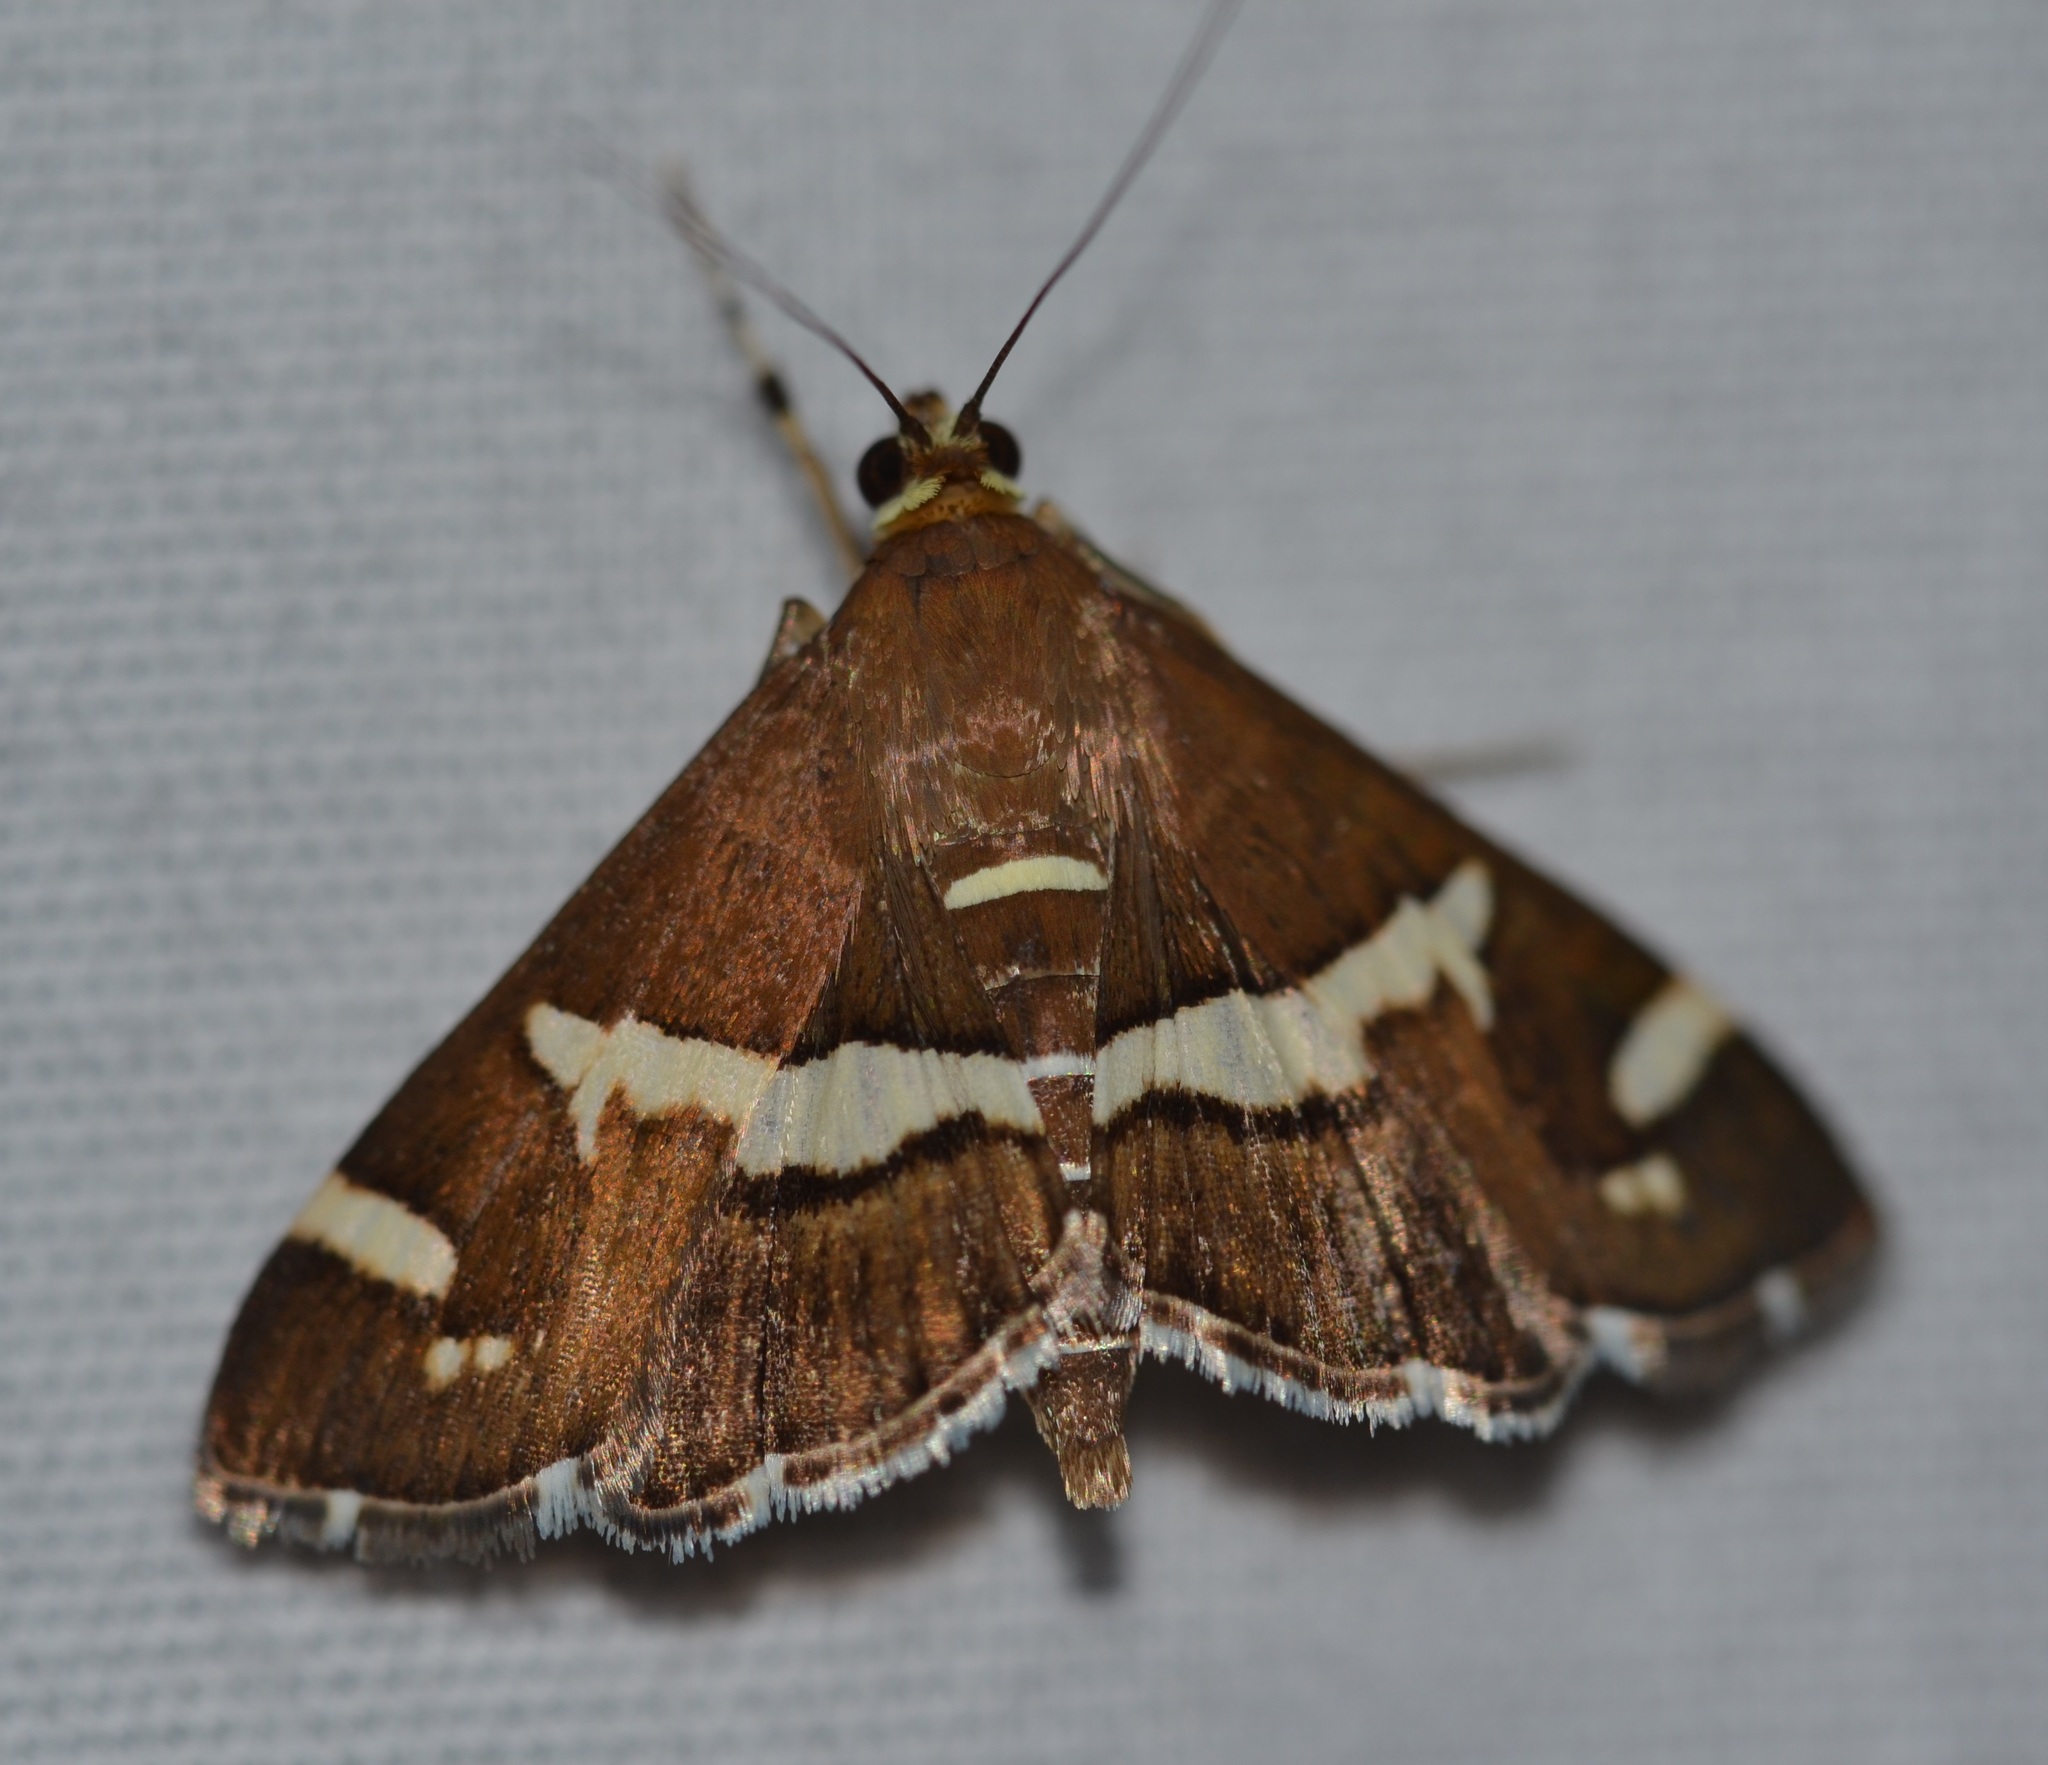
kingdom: Animalia
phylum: Arthropoda
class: Insecta
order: Lepidoptera
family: Crambidae
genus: Spoladea
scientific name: Spoladea recurvalis
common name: Beet webworm moth
